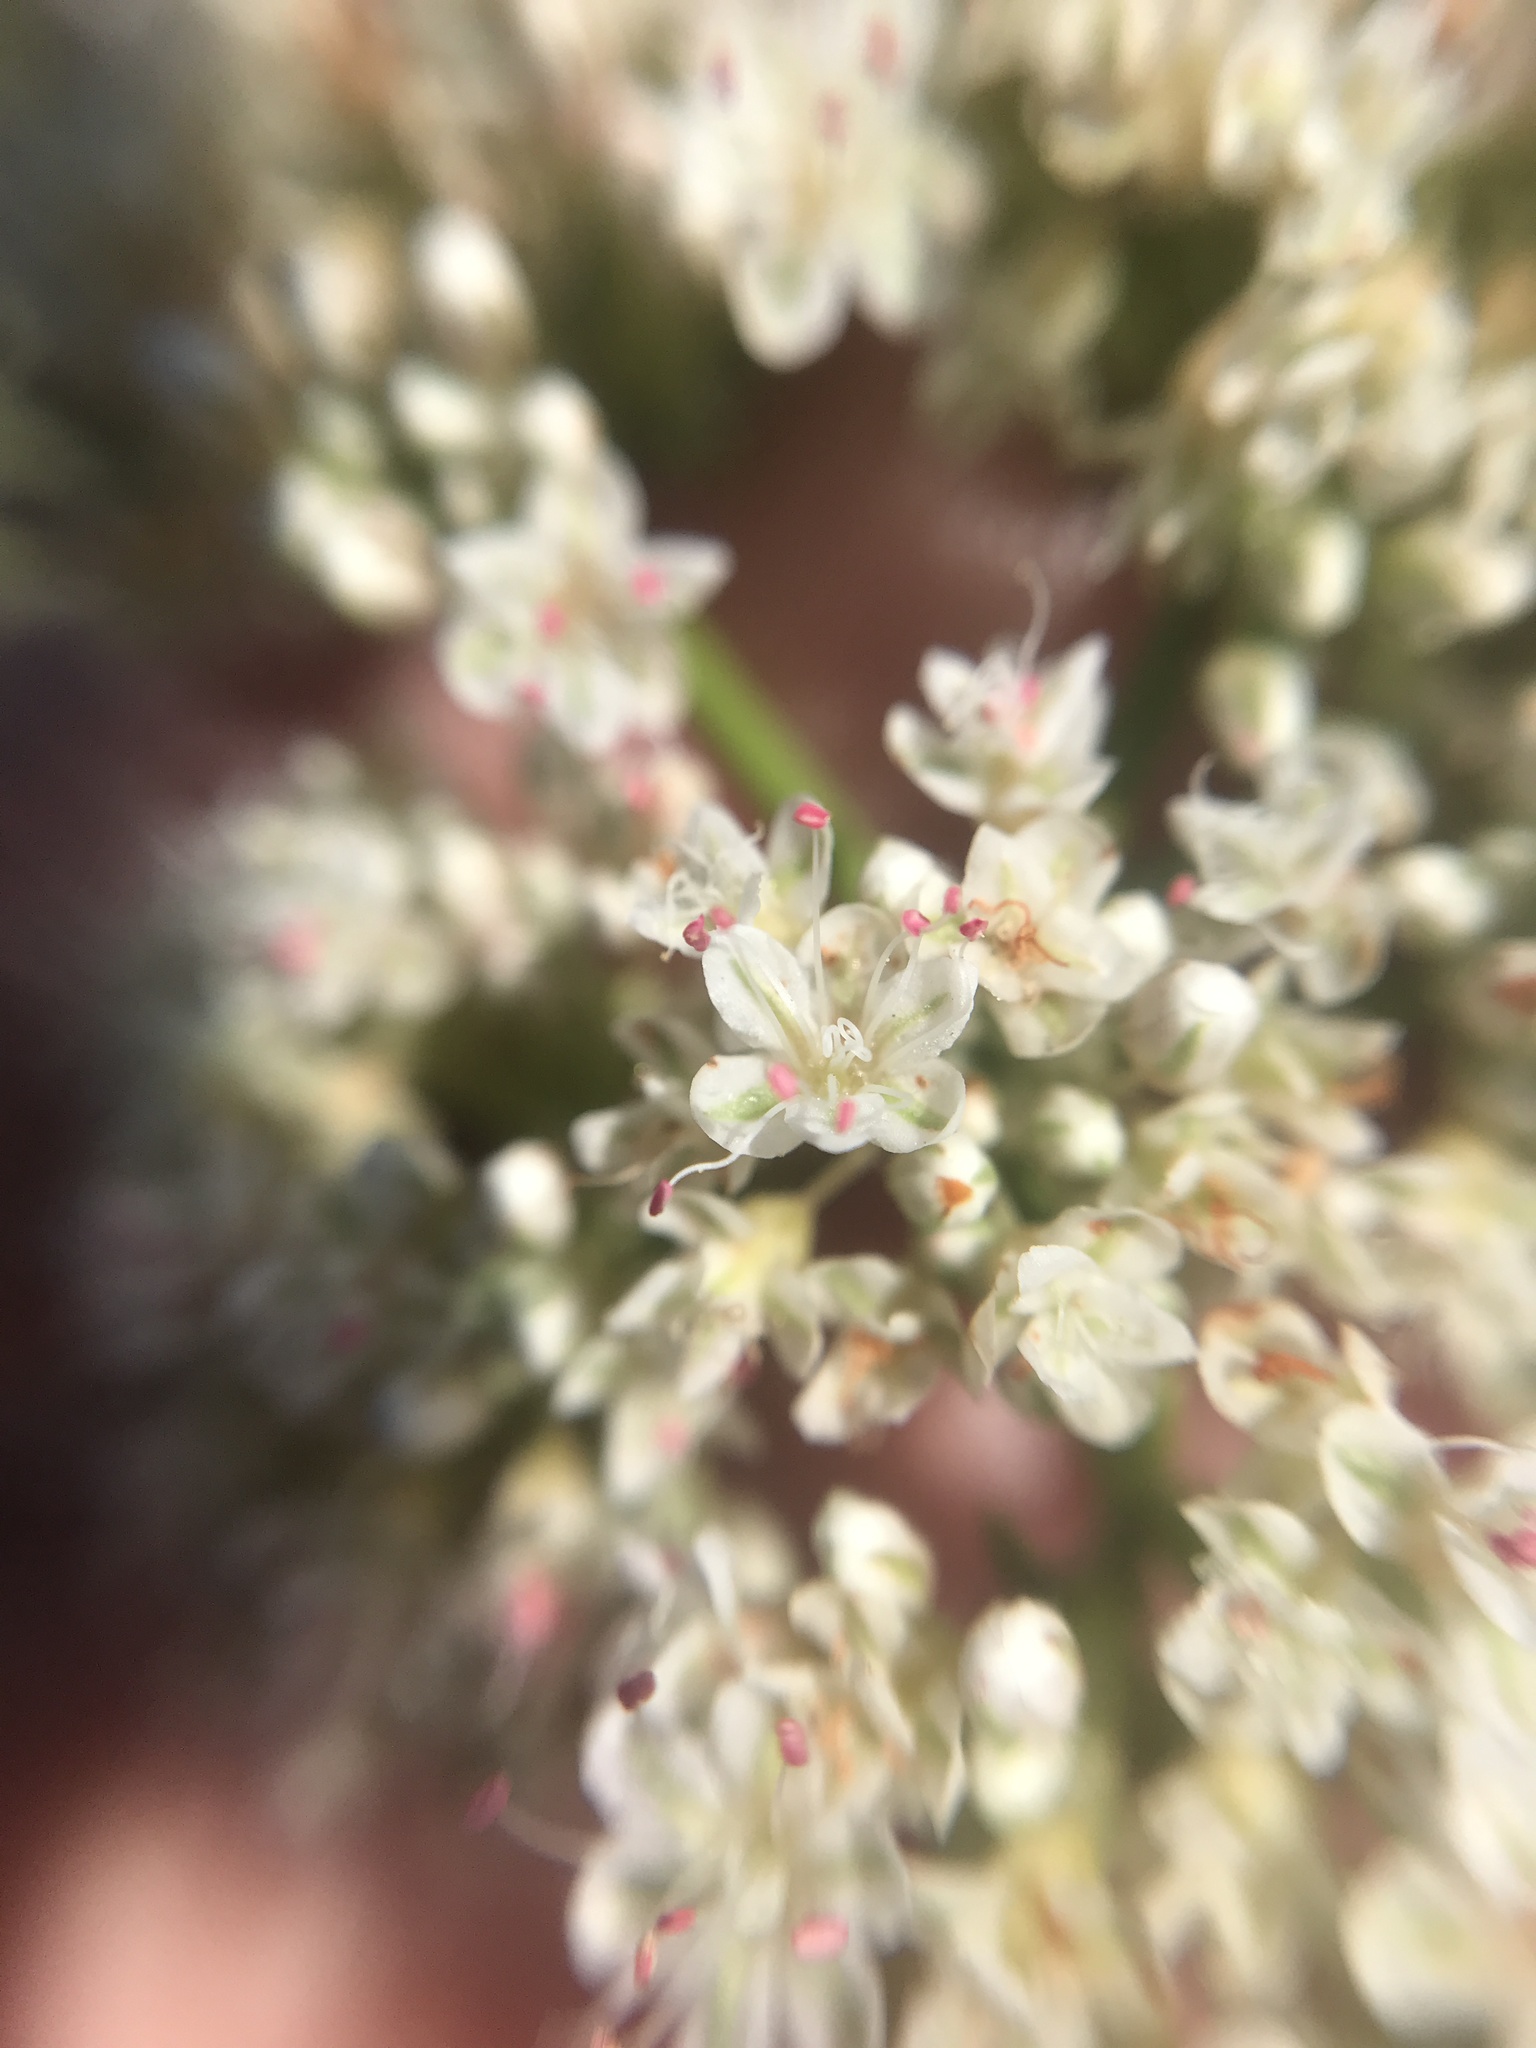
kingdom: Plantae
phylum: Tracheophyta
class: Magnoliopsida
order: Caryophyllales
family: Polygonaceae
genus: Eriogonum
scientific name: Eriogonum fasciculatum
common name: California wild buckwheat
